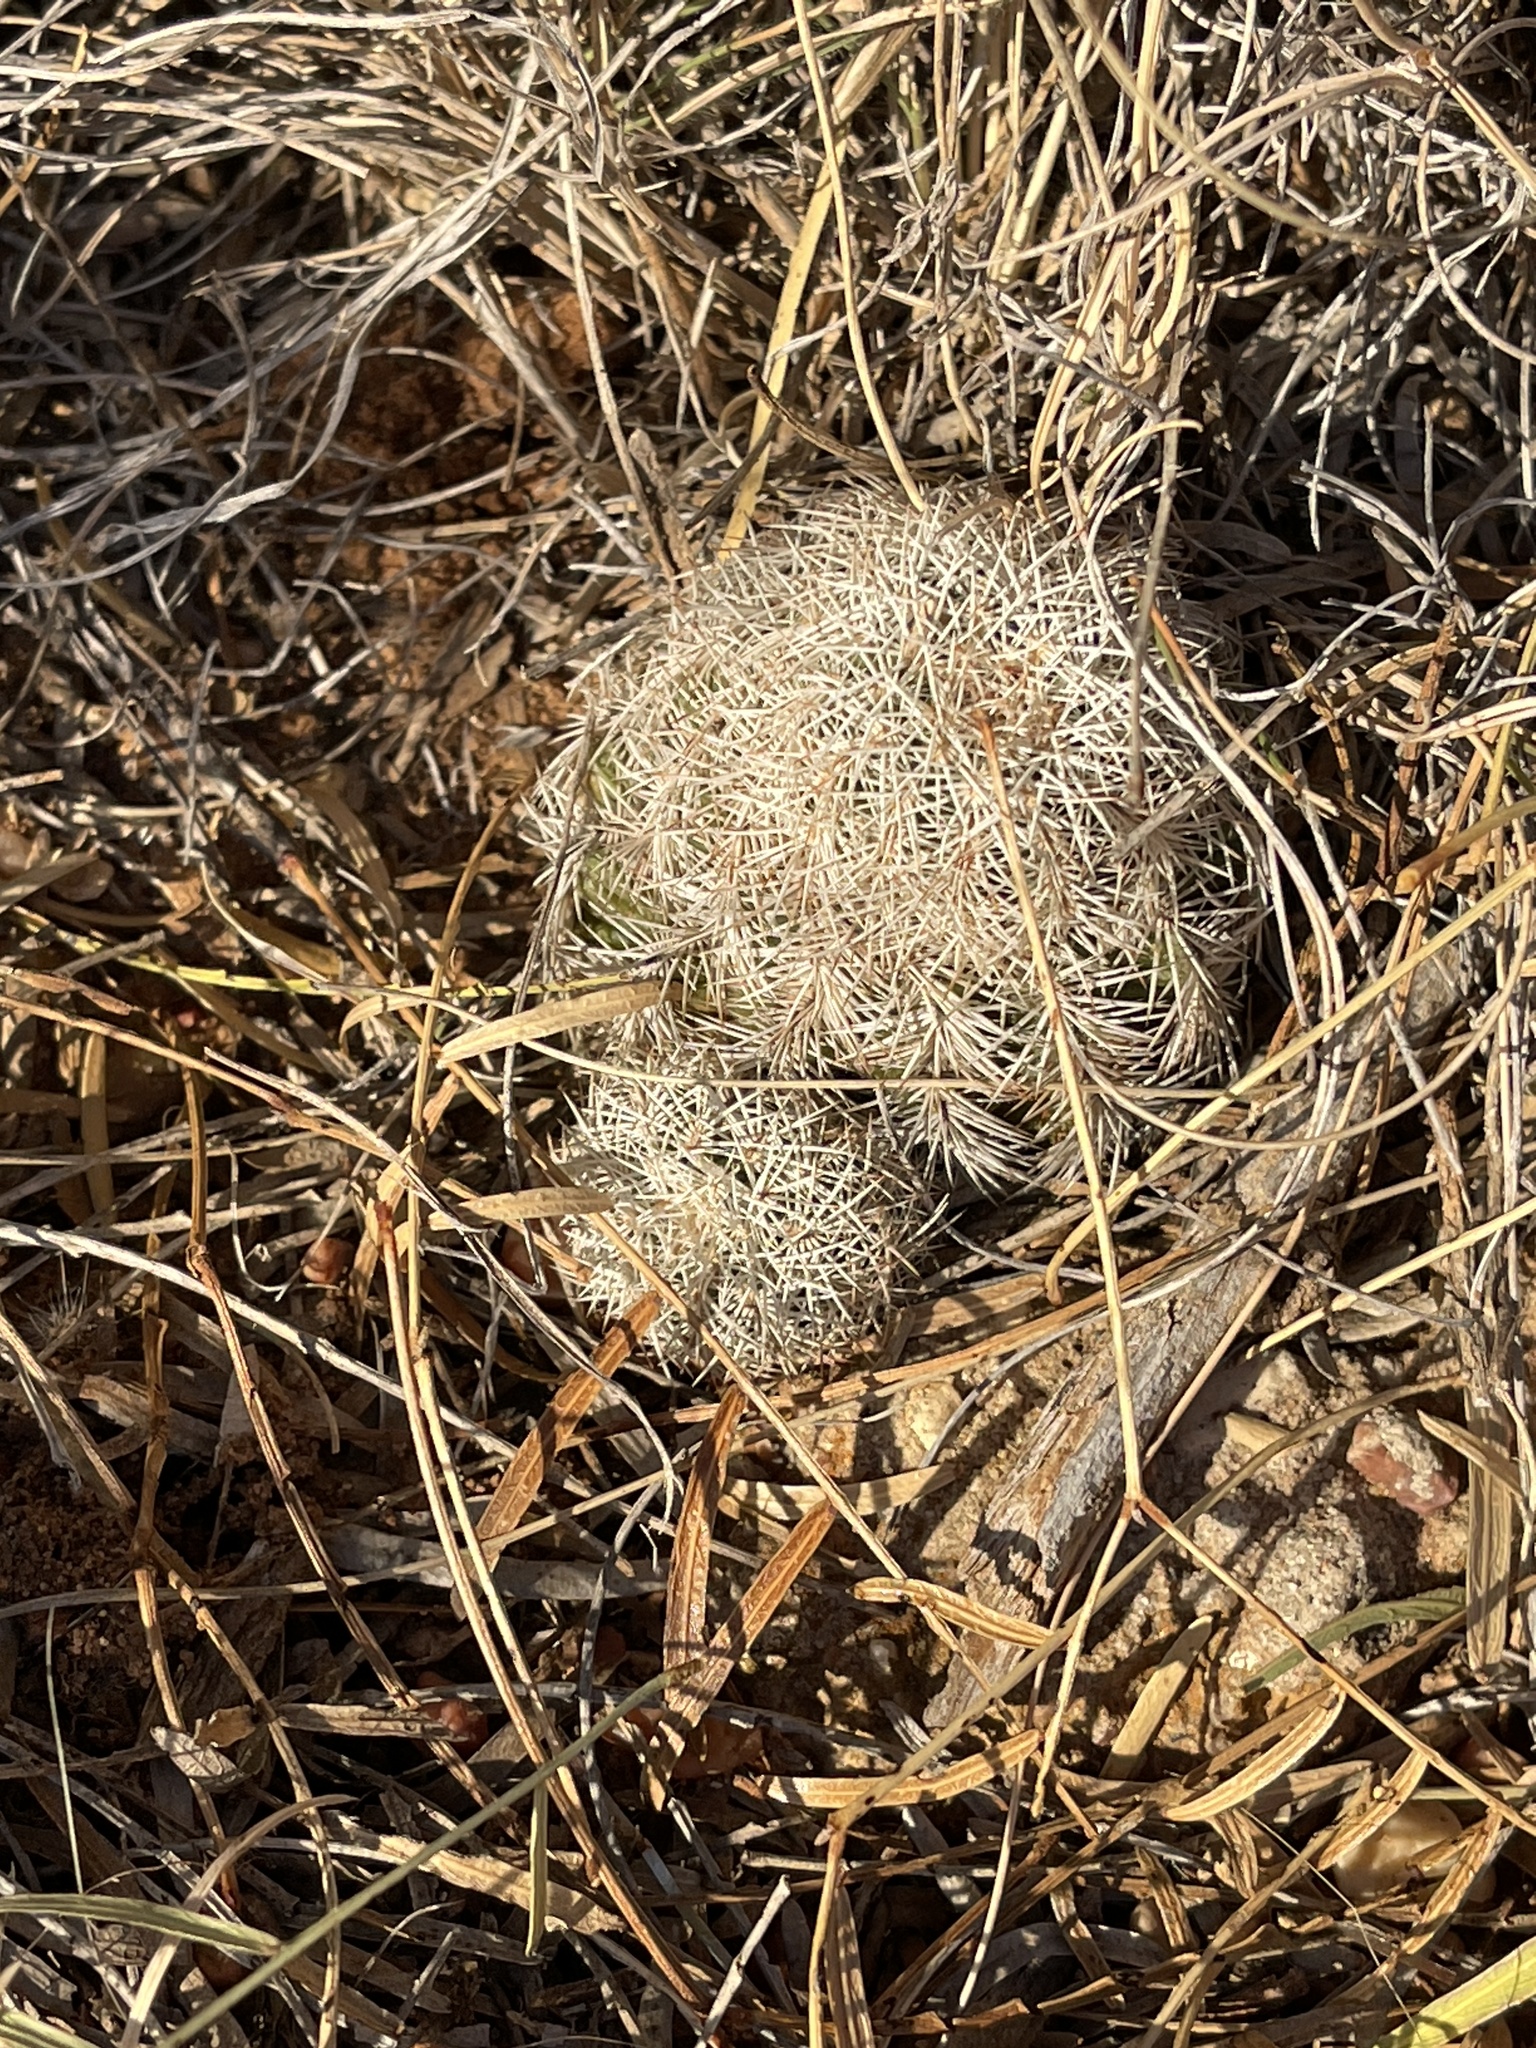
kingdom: Plantae
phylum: Tracheophyta
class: Magnoliopsida
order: Caryophyllales
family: Cactaceae
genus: Echinocereus
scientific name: Echinocereus reichenbachii
